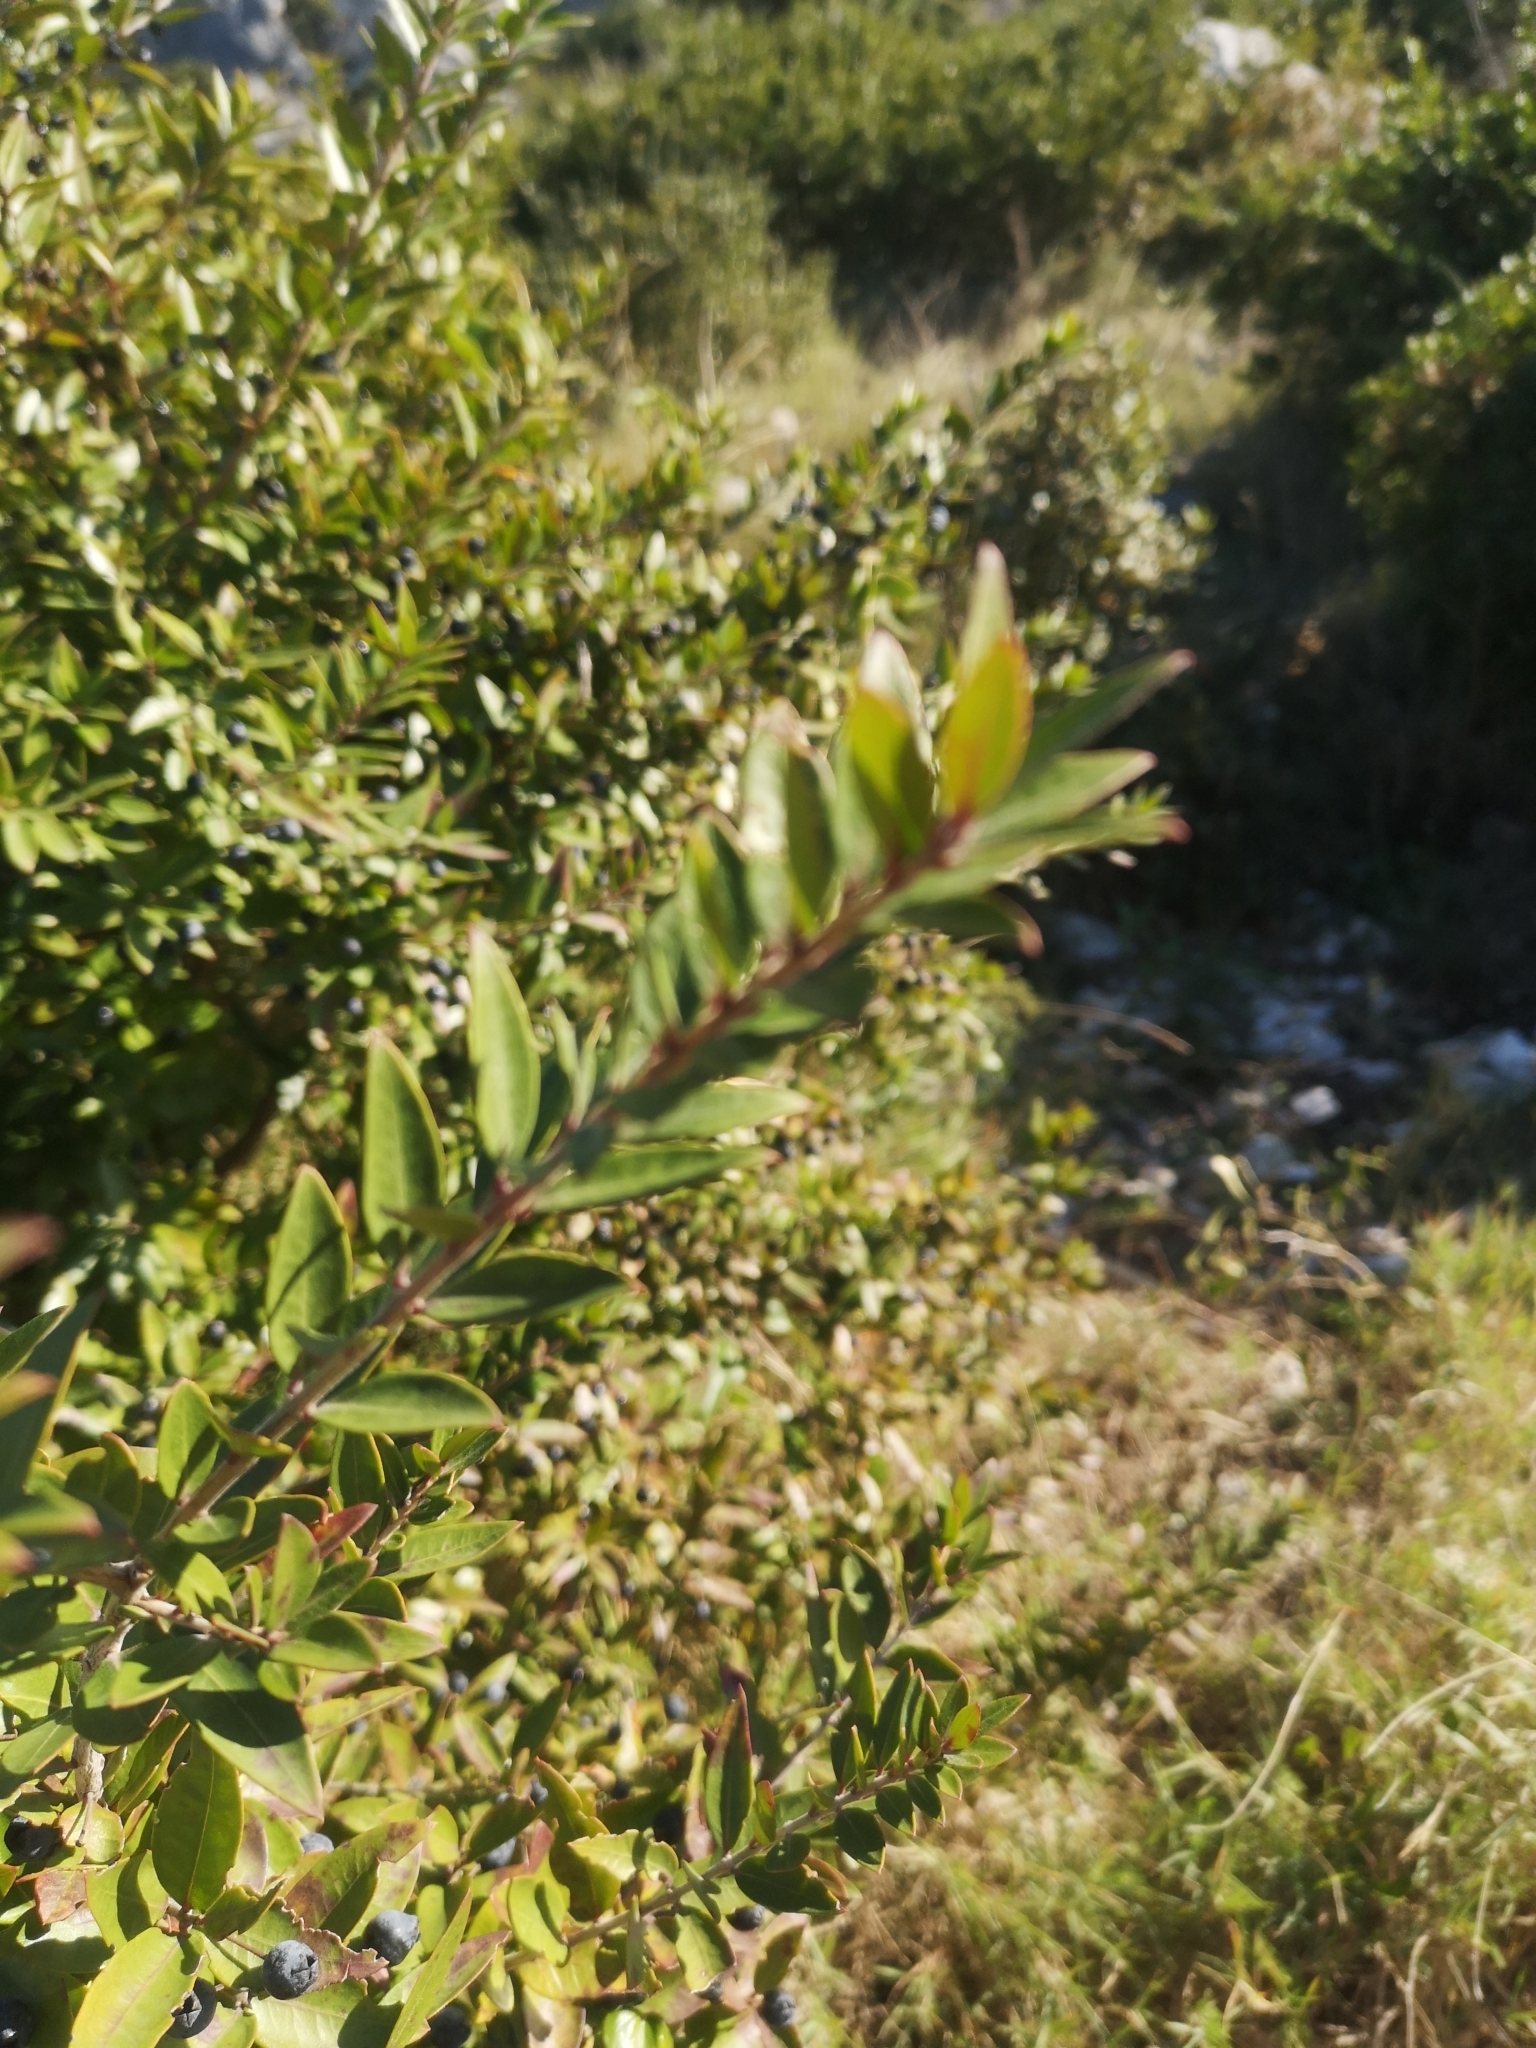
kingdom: Plantae
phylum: Tracheophyta
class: Magnoliopsida
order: Myrtales
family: Myrtaceae
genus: Myrtus
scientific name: Myrtus communis
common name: Myrtle
